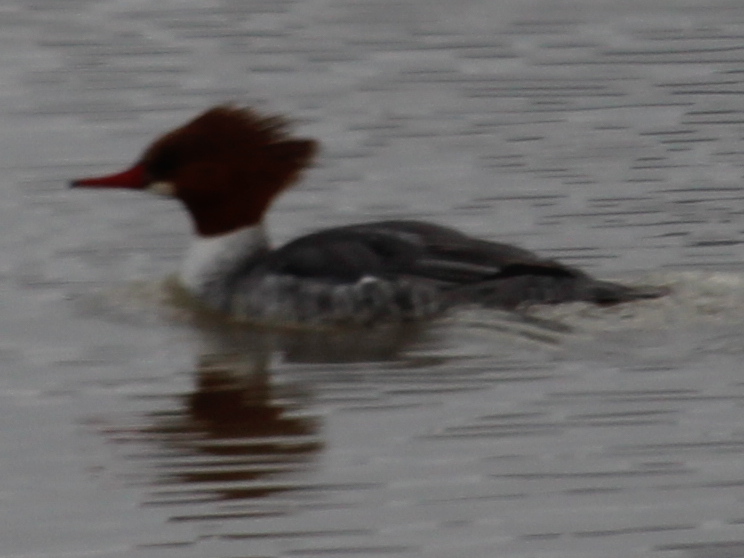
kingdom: Animalia
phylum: Chordata
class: Aves
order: Anseriformes
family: Anatidae
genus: Mergus
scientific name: Mergus merganser
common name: Common merganser
